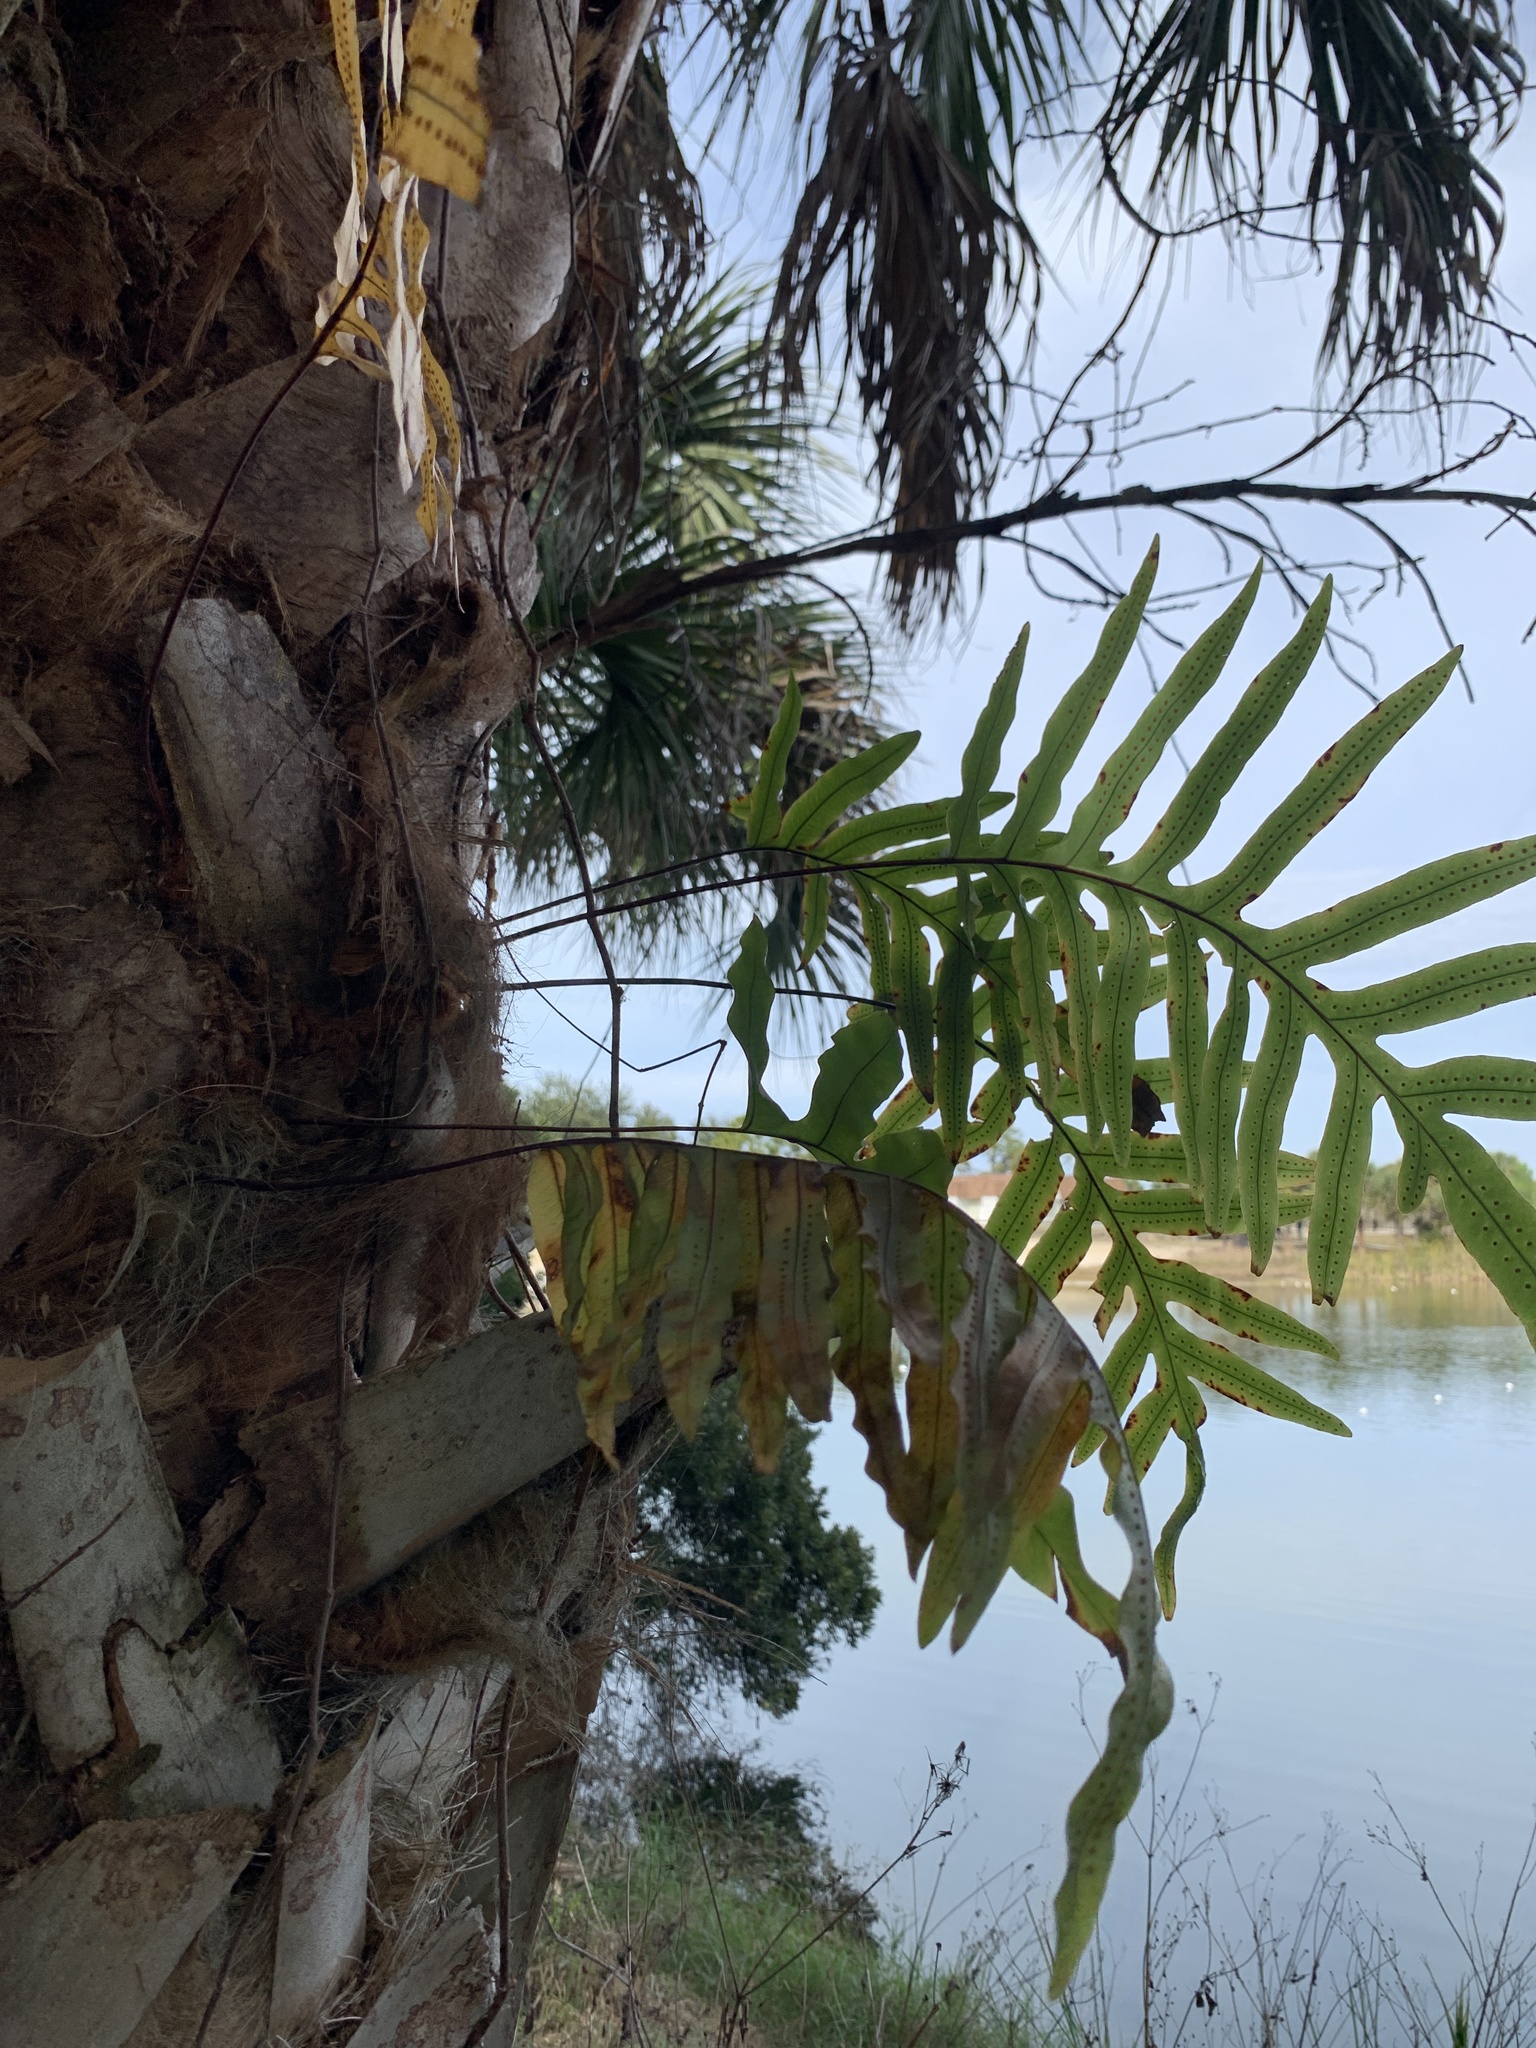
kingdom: Plantae
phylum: Tracheophyta
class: Polypodiopsida
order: Polypodiales
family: Polypodiaceae
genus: Phlebodium
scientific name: Phlebodium aureum
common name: Gold-foot fern
